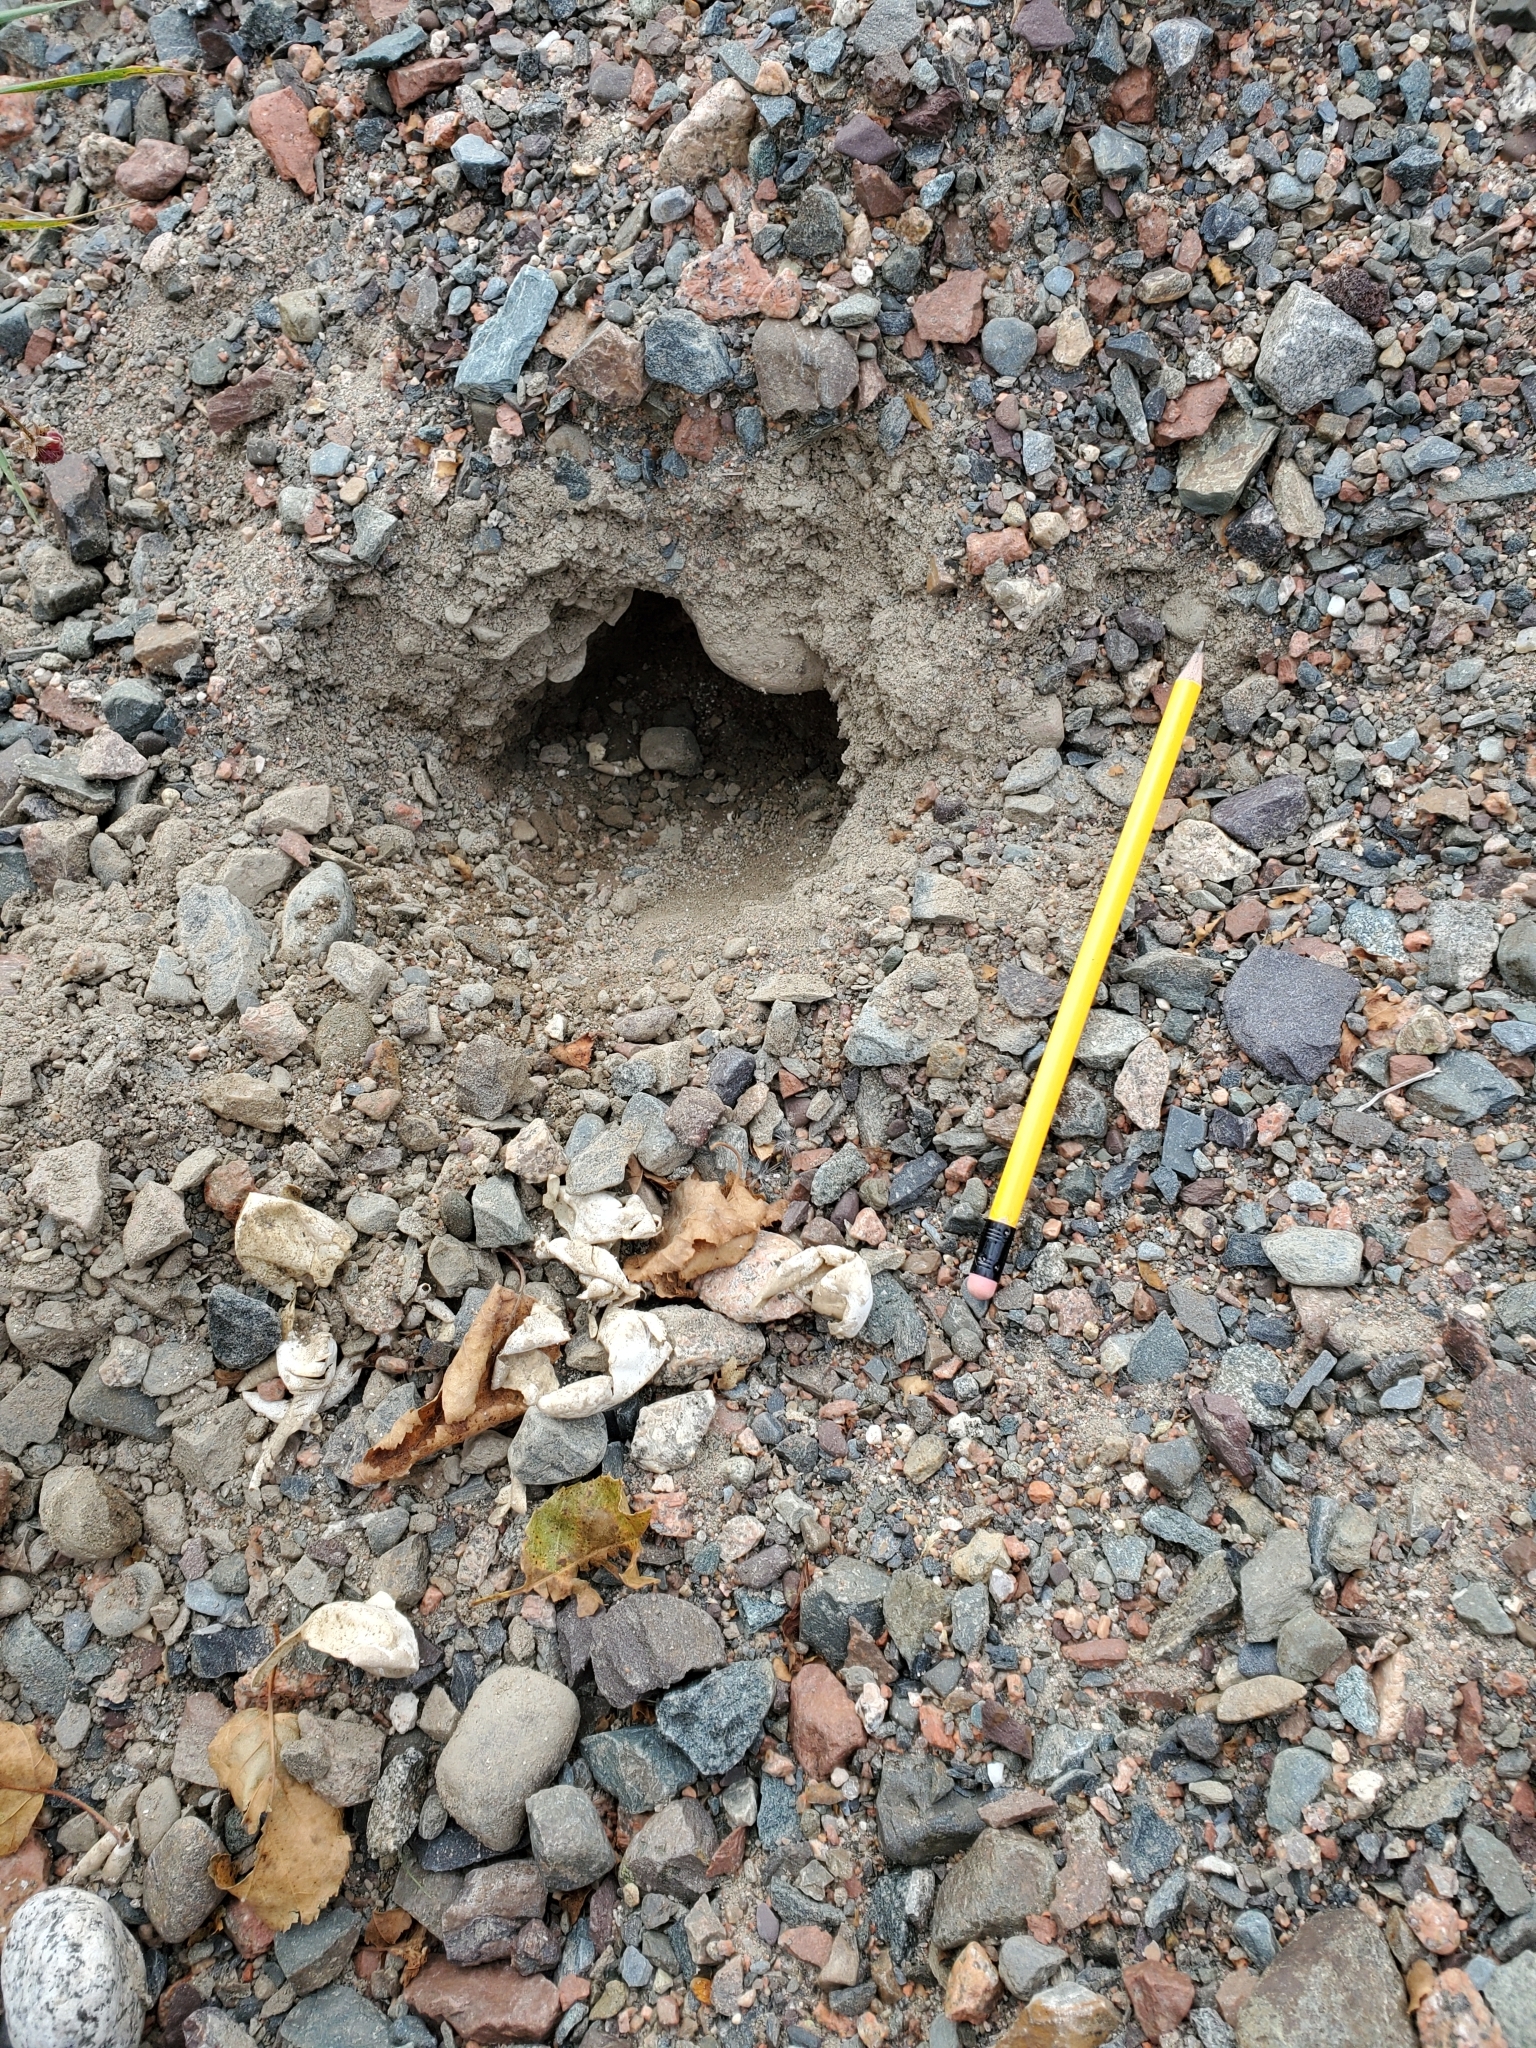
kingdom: Animalia
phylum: Chordata
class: Testudines
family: Chelydridae
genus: Chelydra
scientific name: Chelydra serpentina
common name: Common snapping turtle
